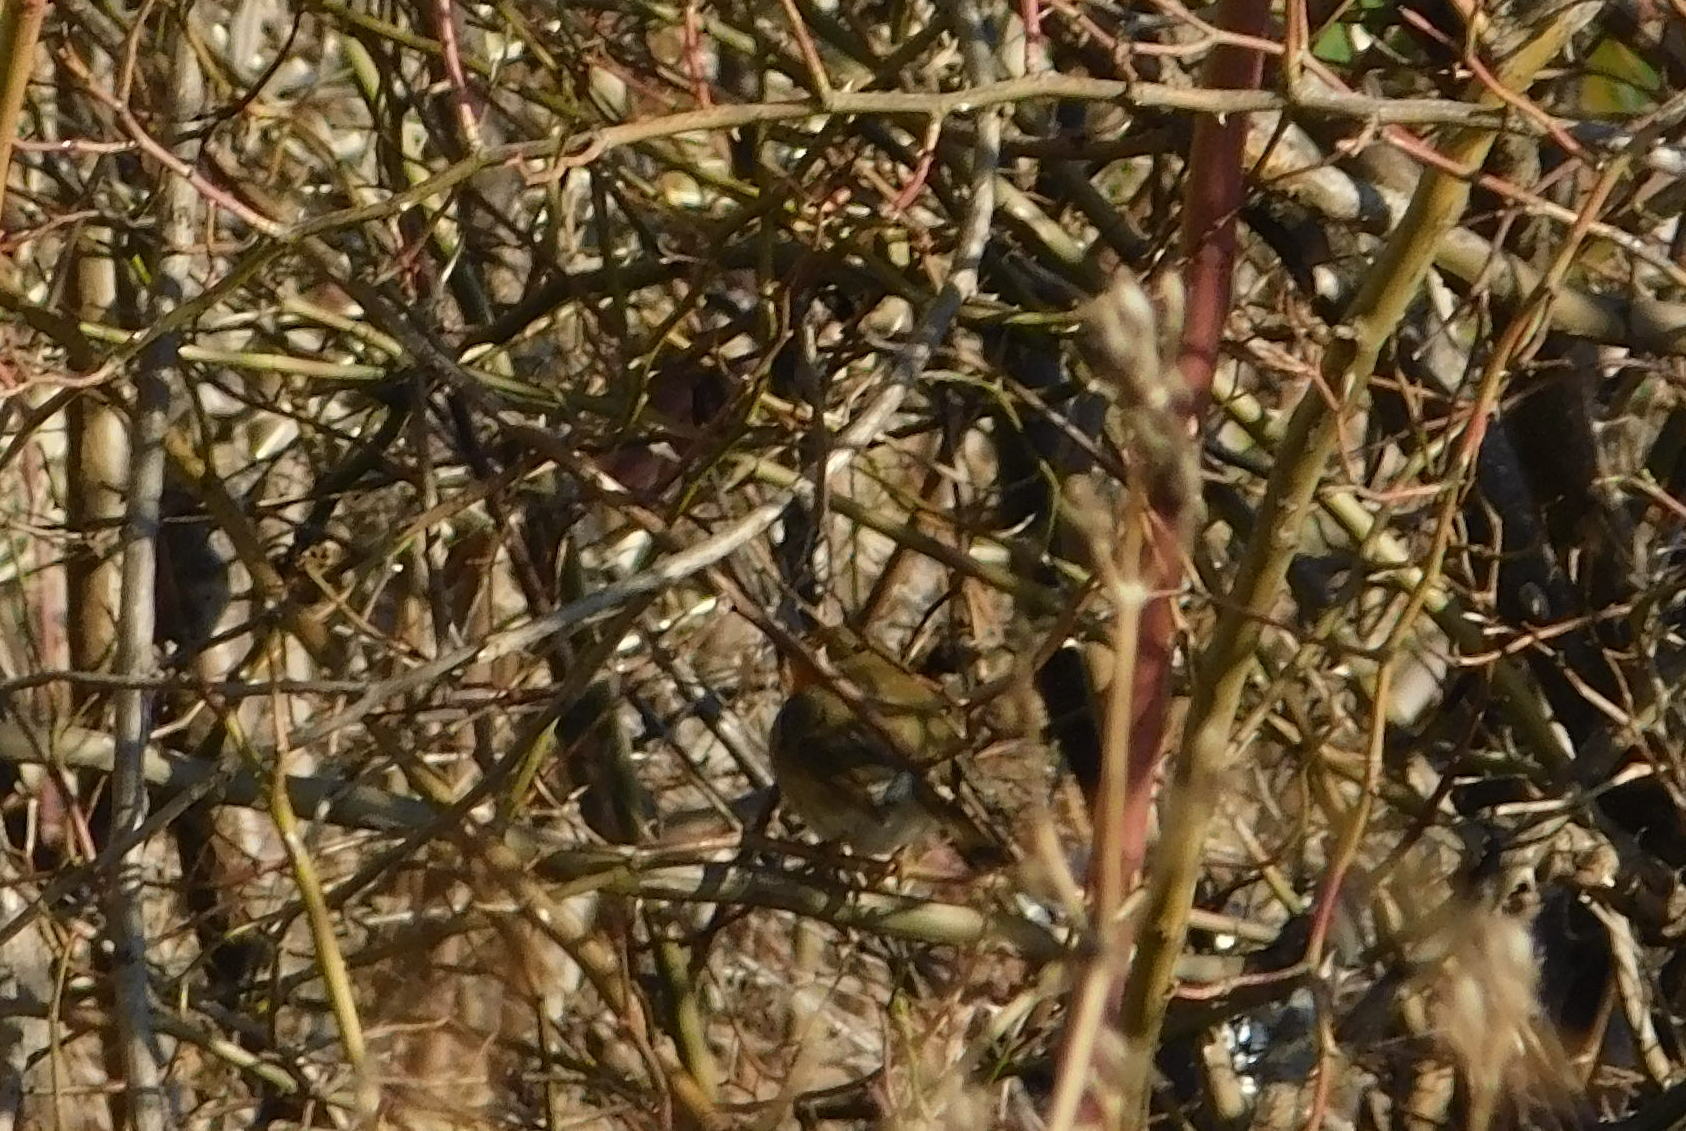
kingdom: Animalia
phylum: Chordata
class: Aves
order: Passeriformes
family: Muscicapidae
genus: Erithacus
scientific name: Erithacus rubecula
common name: European robin
